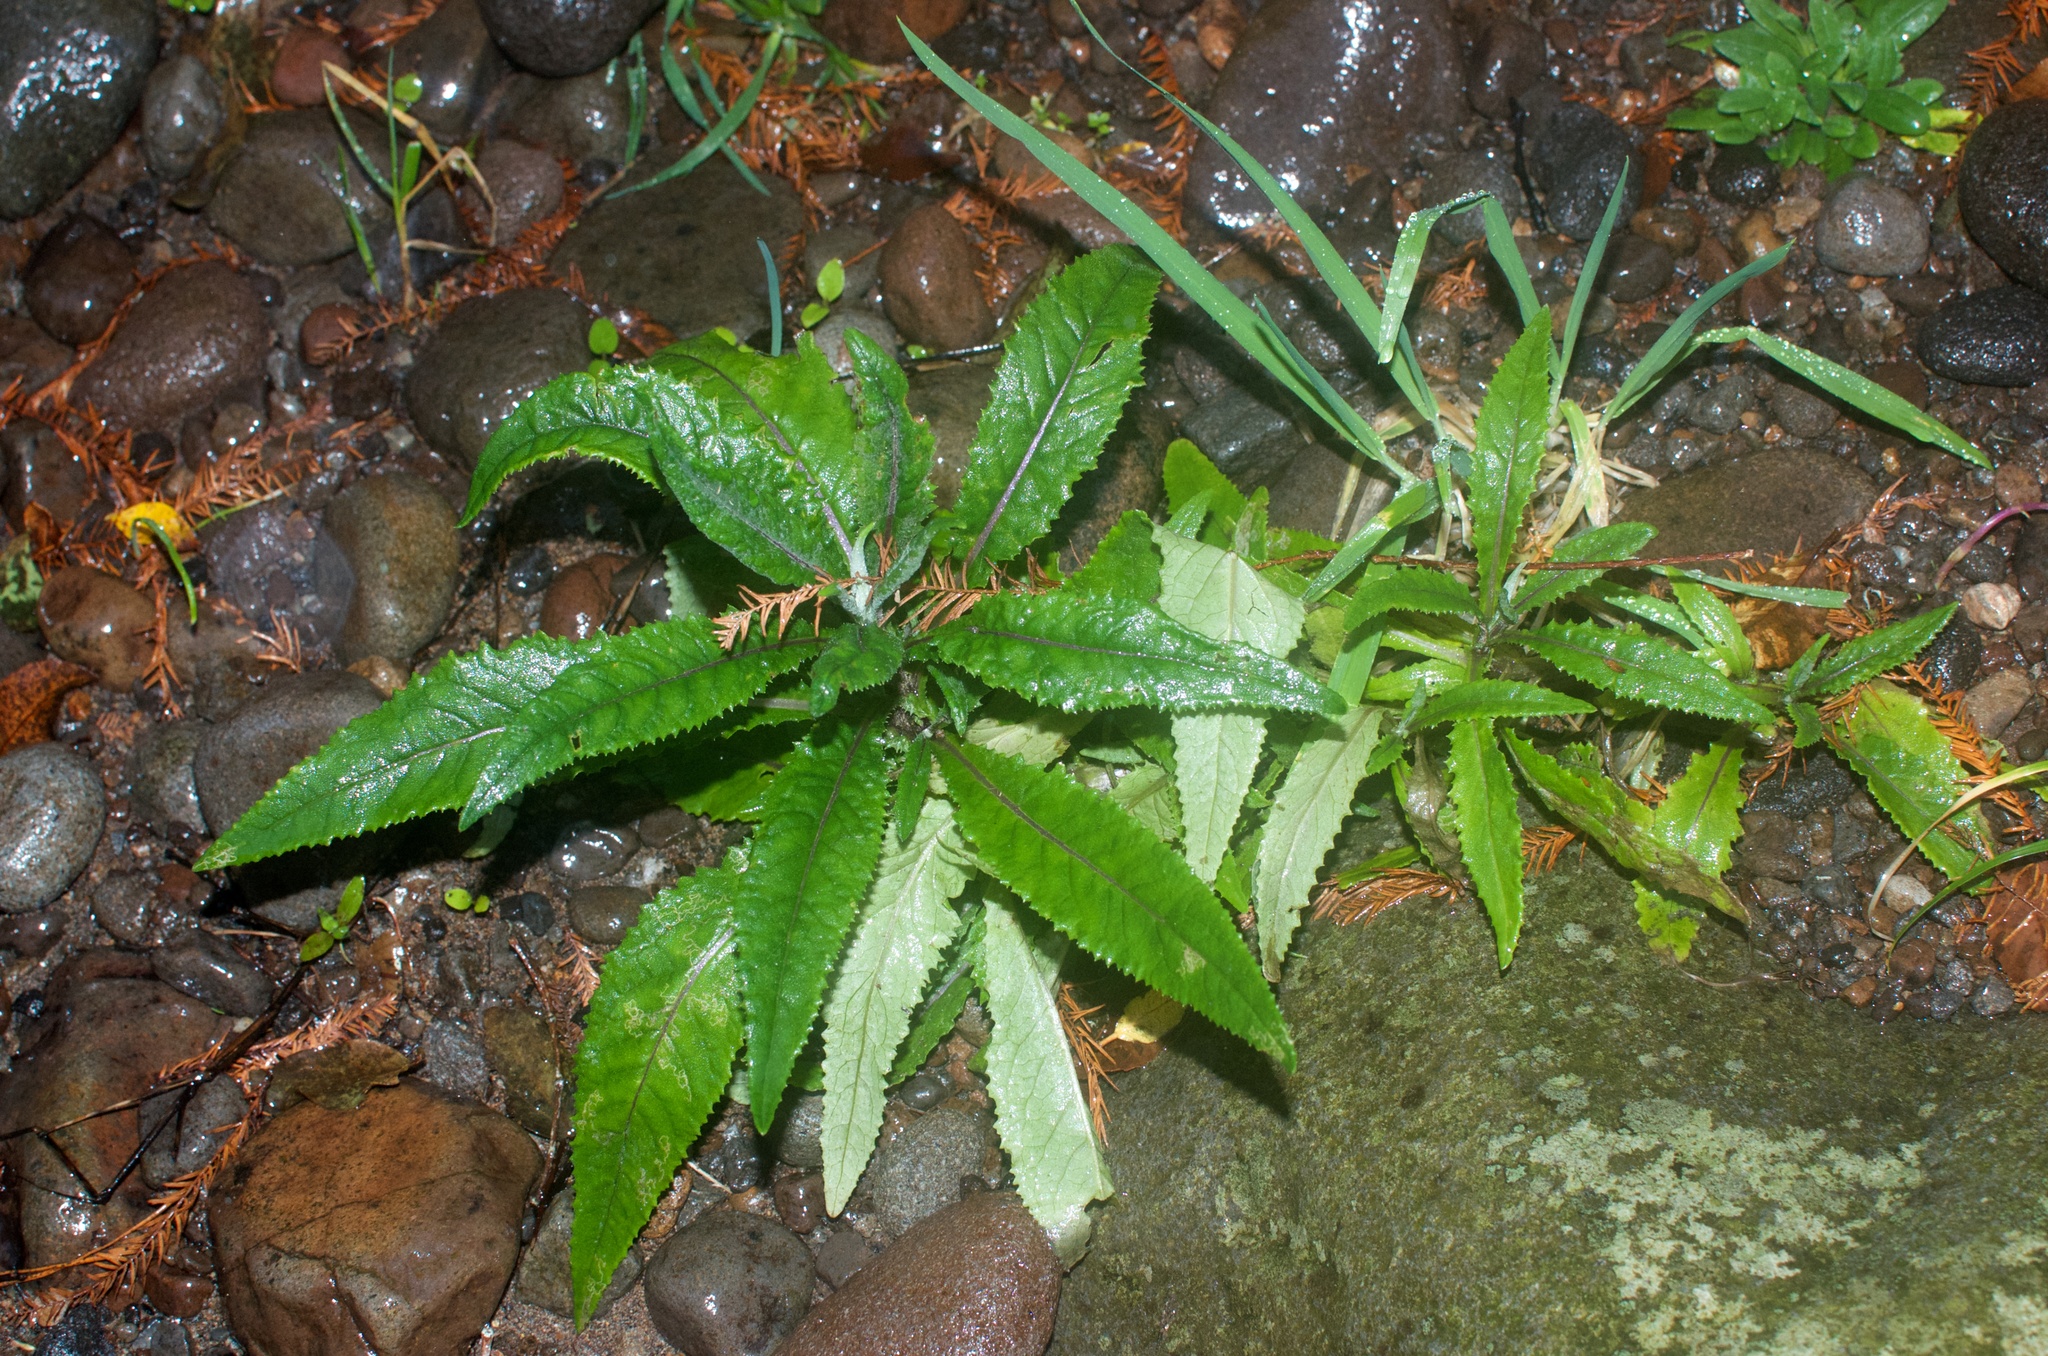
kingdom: Plantae
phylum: Tracheophyta
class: Magnoliopsida
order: Asterales
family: Asteraceae
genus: Senecio
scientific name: Senecio minimus
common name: Toothed fireweed
